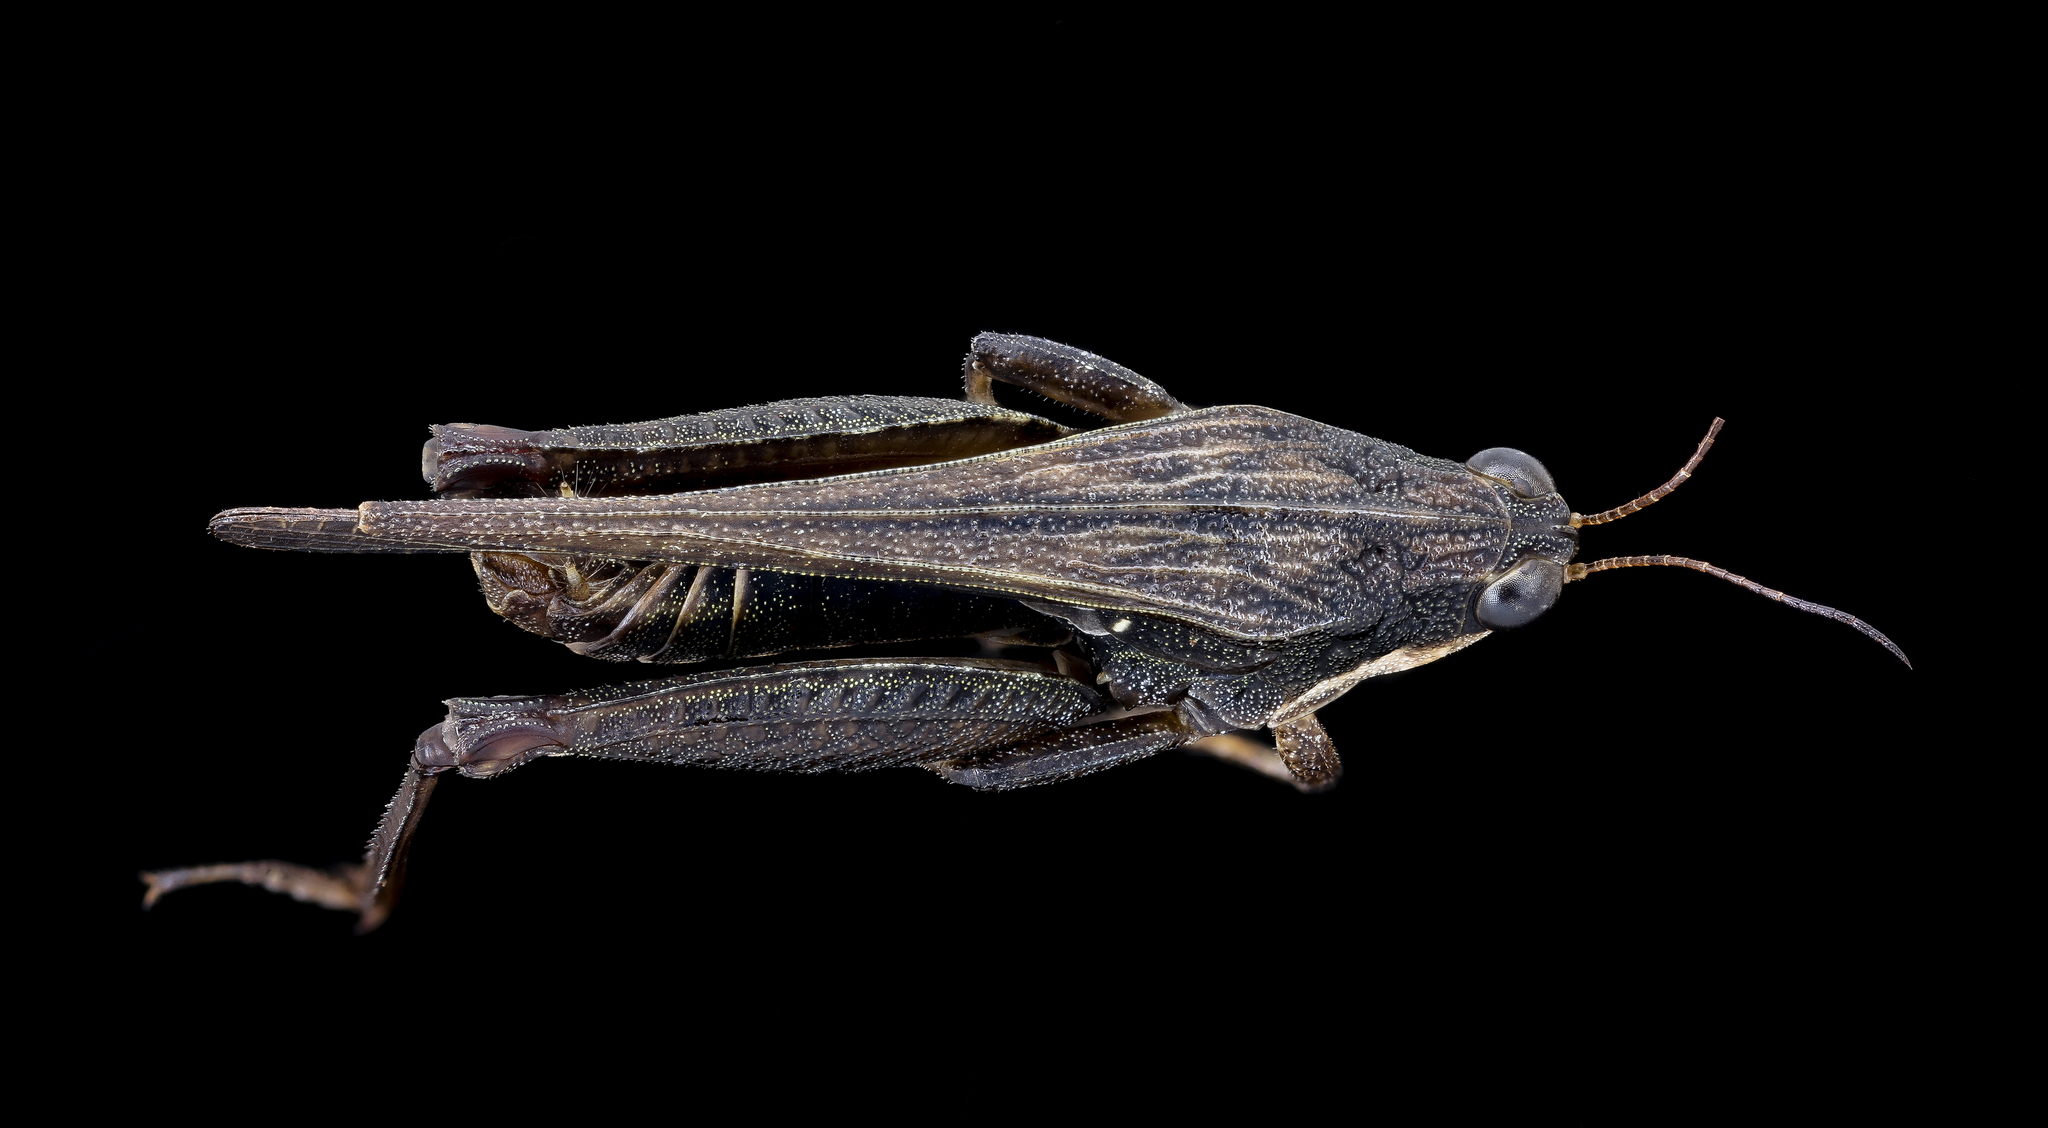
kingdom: Animalia
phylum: Arthropoda
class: Insecta
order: Orthoptera
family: Tetrigidae
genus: Tettigidea
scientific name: Tettigidea laterale
